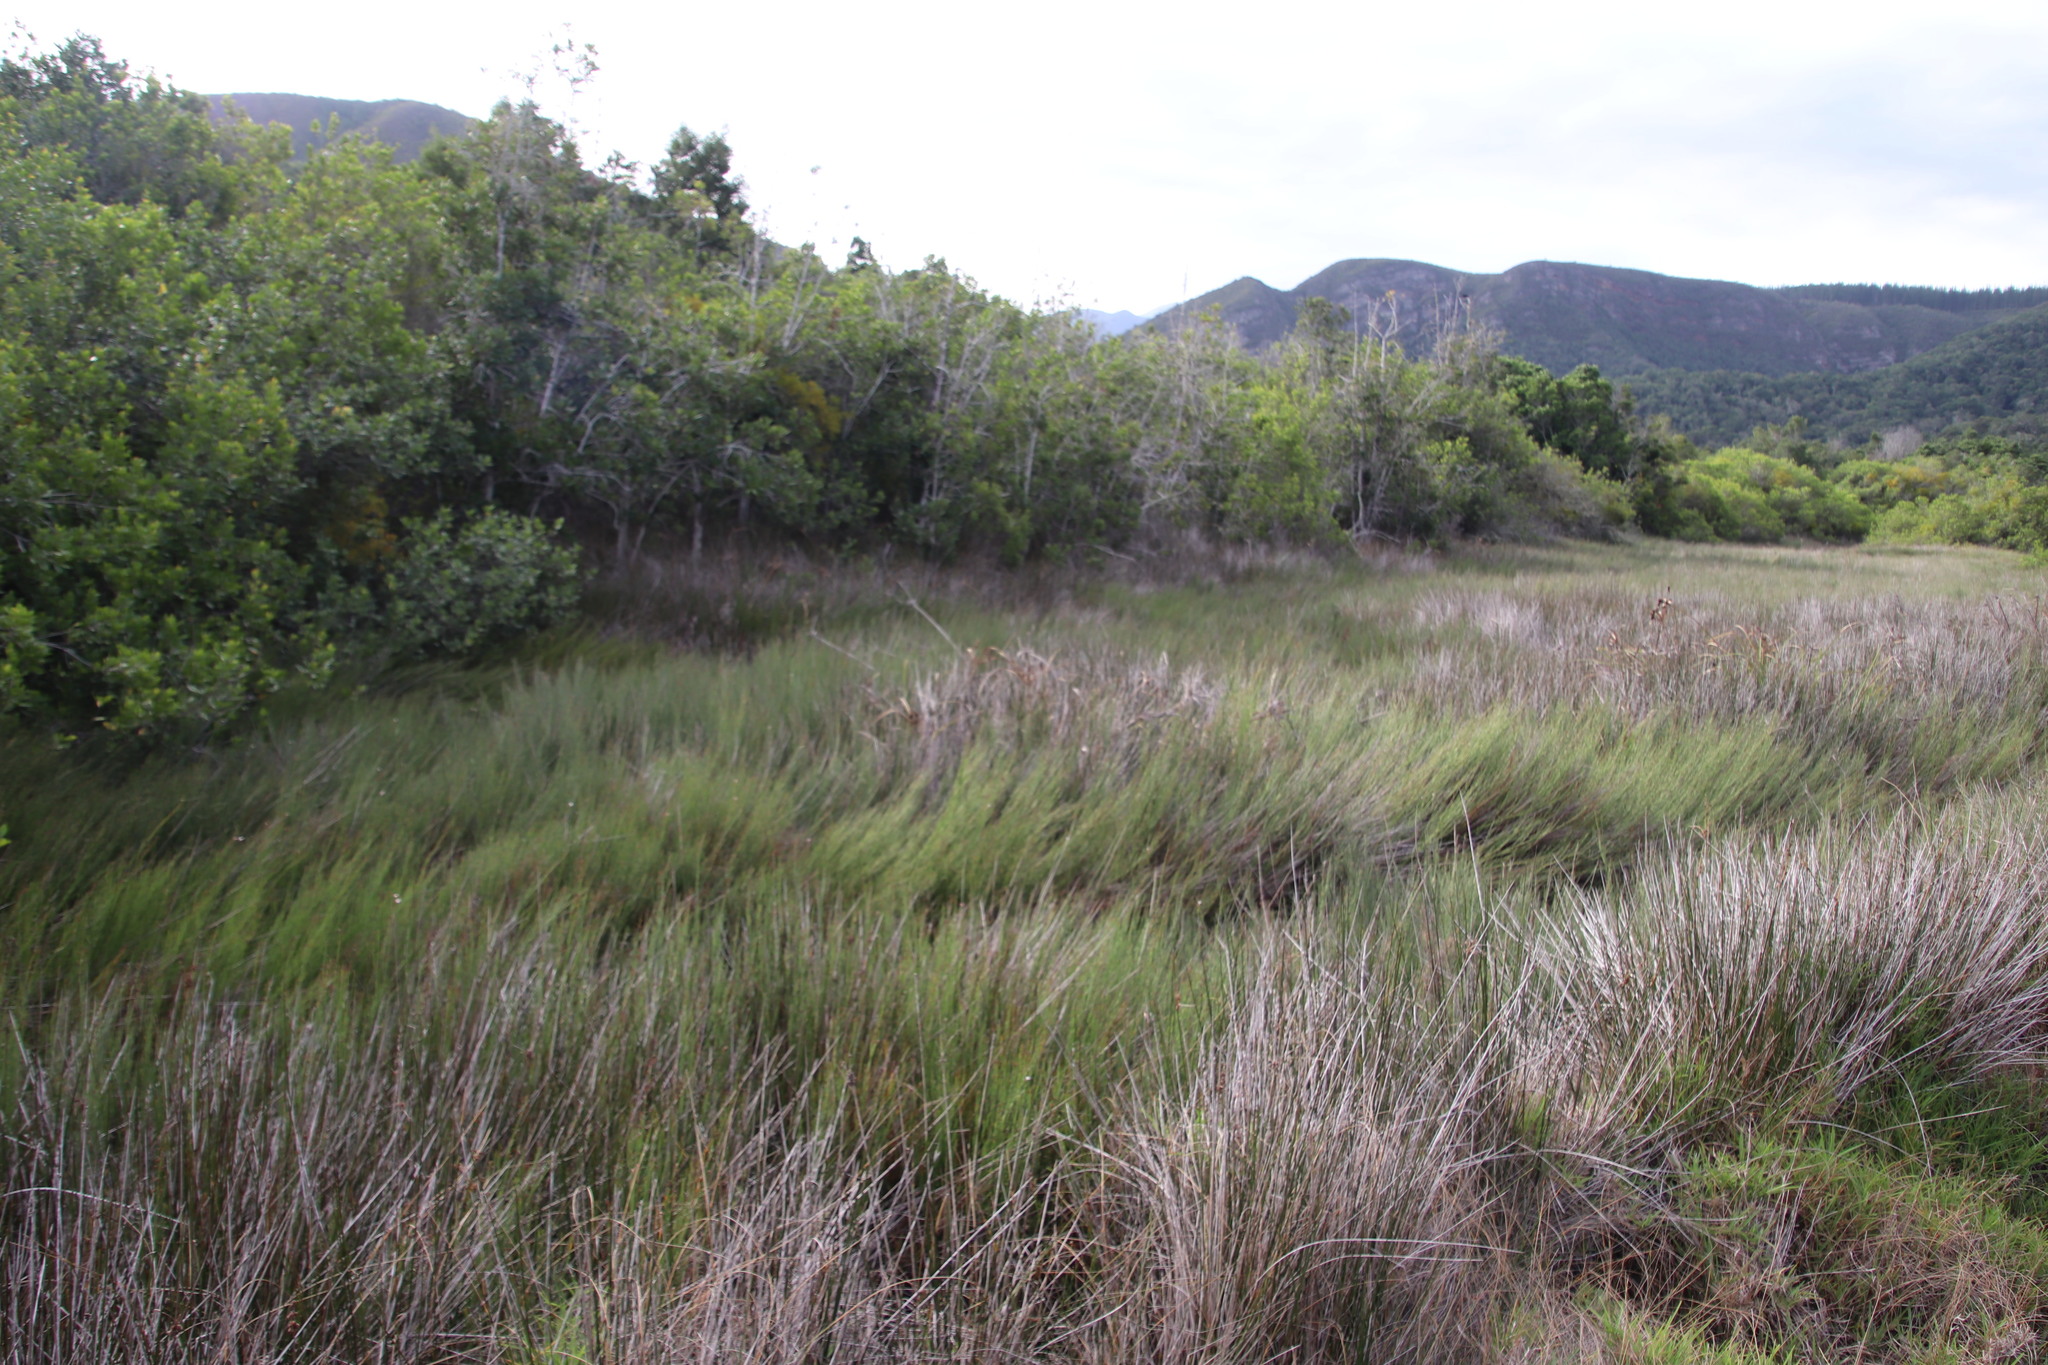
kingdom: Plantae
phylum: Tracheophyta
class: Liliopsida
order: Poales
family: Cyperaceae
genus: Cyperus
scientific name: Cyperus thunbergii
